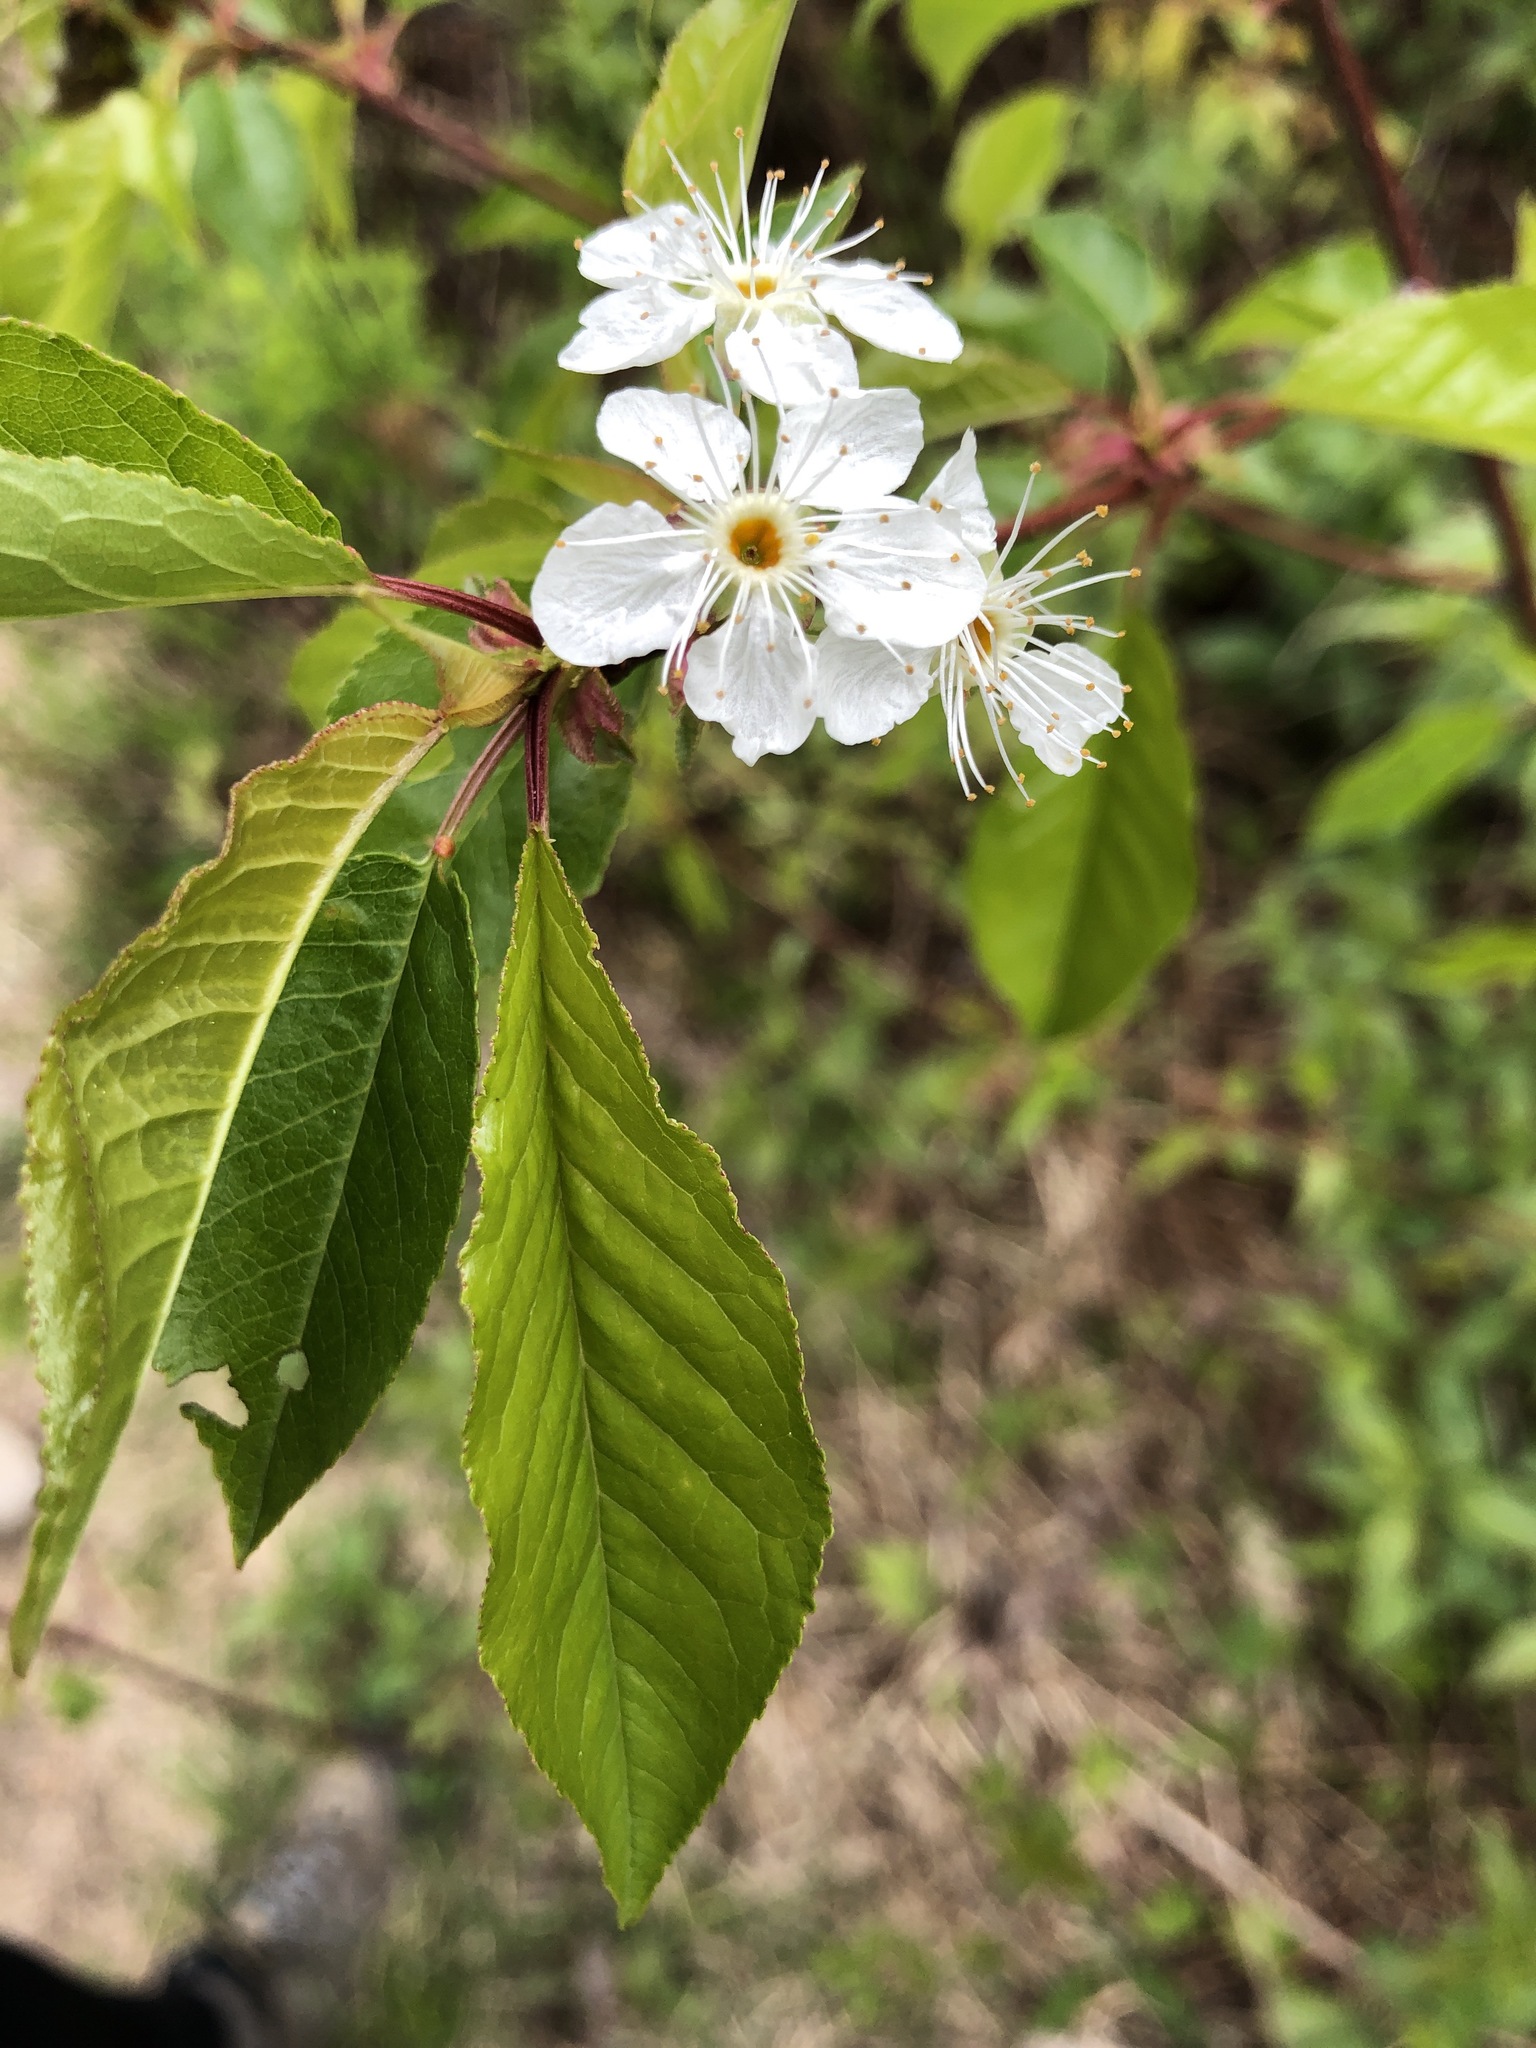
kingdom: Plantae
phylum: Tracheophyta
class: Magnoliopsida
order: Rosales
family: Rosaceae
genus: Prunus
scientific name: Prunus pensylvanica
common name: Pin cherry
